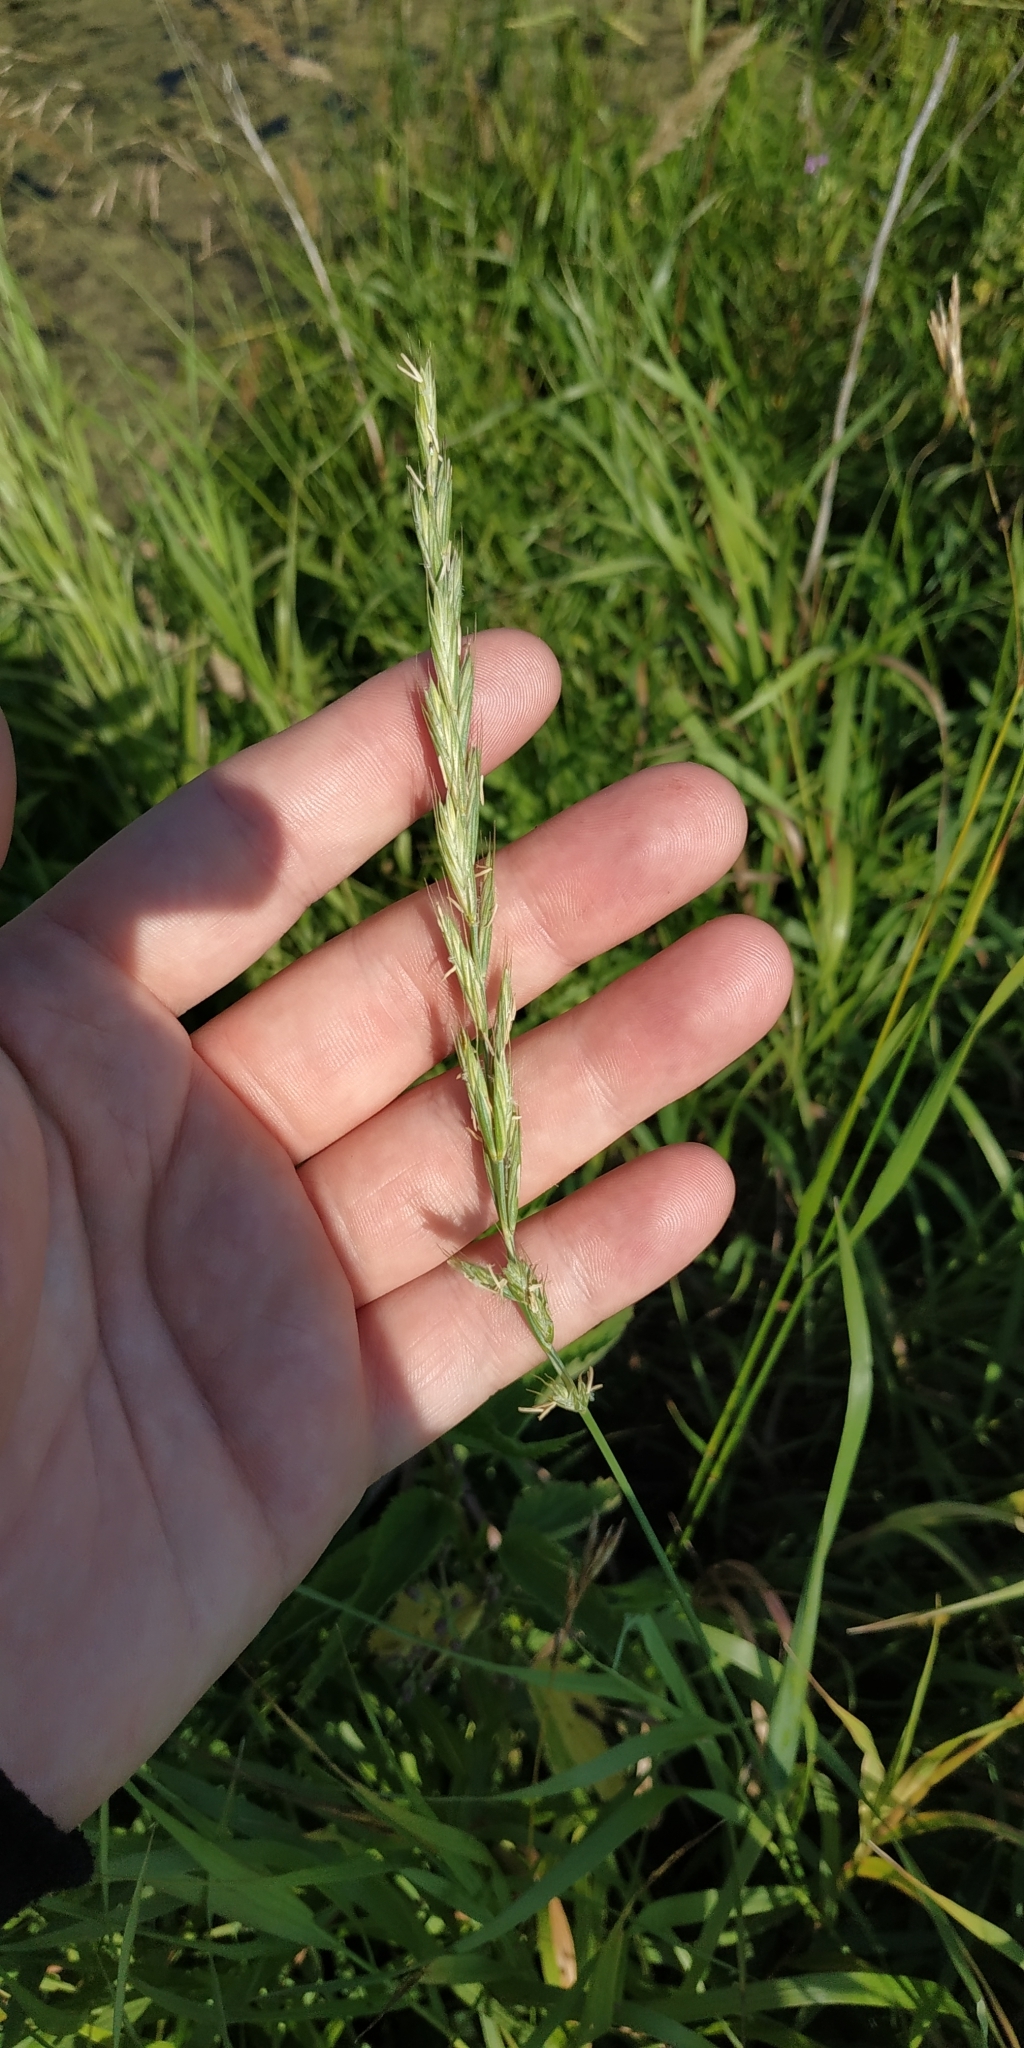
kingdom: Plantae
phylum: Tracheophyta
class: Liliopsida
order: Poales
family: Poaceae
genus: Elymus
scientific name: Elymus repens
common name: Quackgrass
